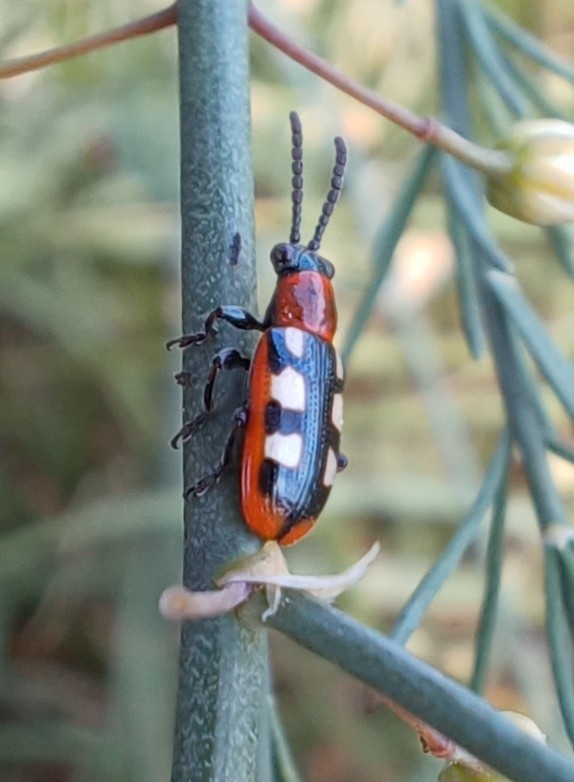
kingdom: Animalia
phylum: Arthropoda
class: Insecta
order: Coleoptera
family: Chrysomelidae
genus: Crioceris
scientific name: Crioceris asparagi
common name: Asparagus beetle
